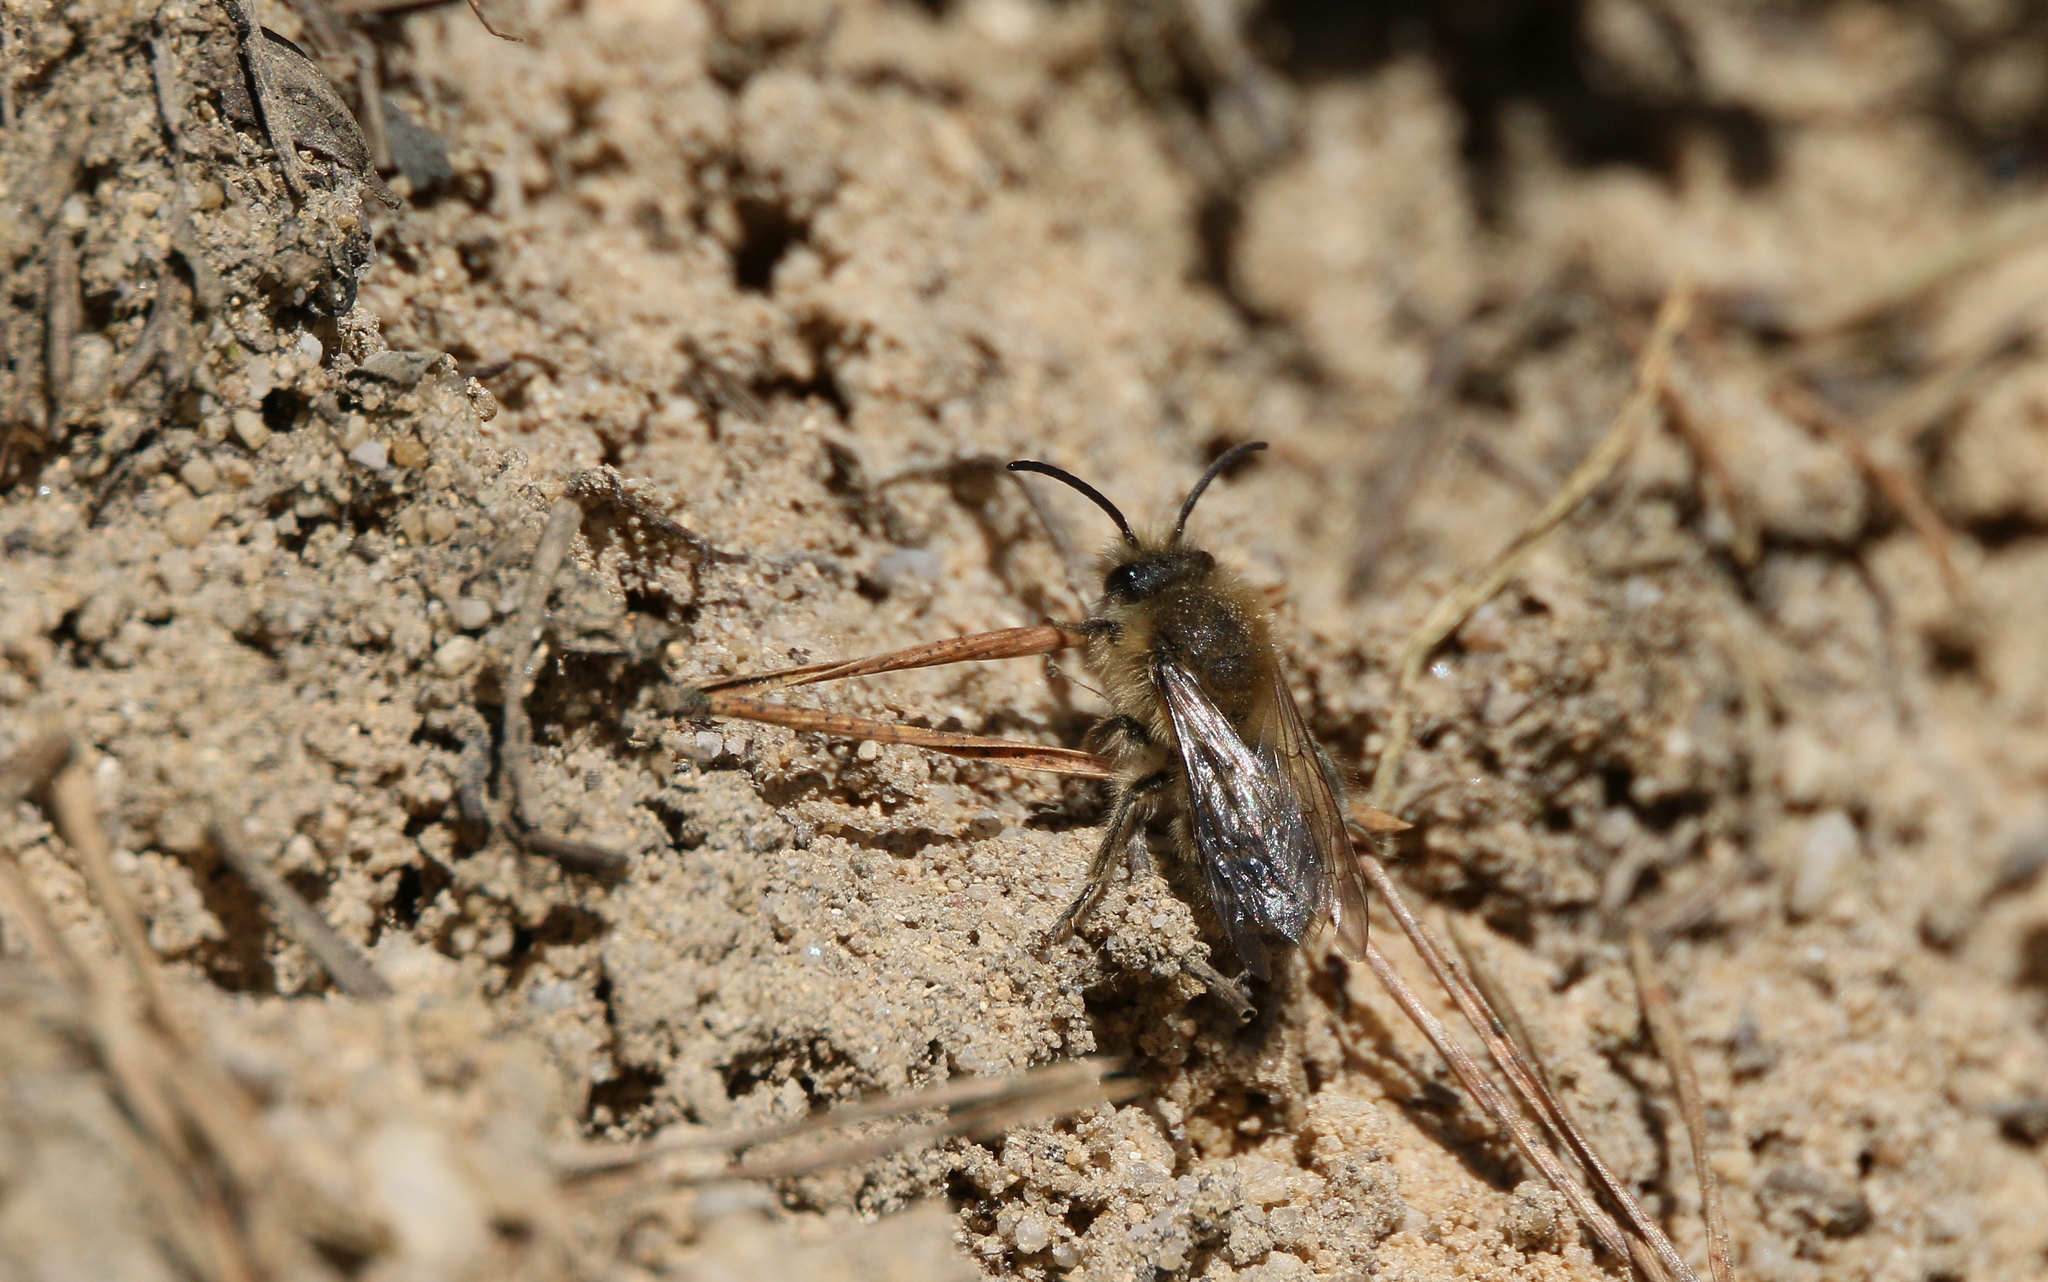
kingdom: Animalia
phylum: Arthropoda
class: Insecta
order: Hymenoptera
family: Colletidae
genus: Colletes
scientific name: Colletes cunicularius
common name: Early colletes
